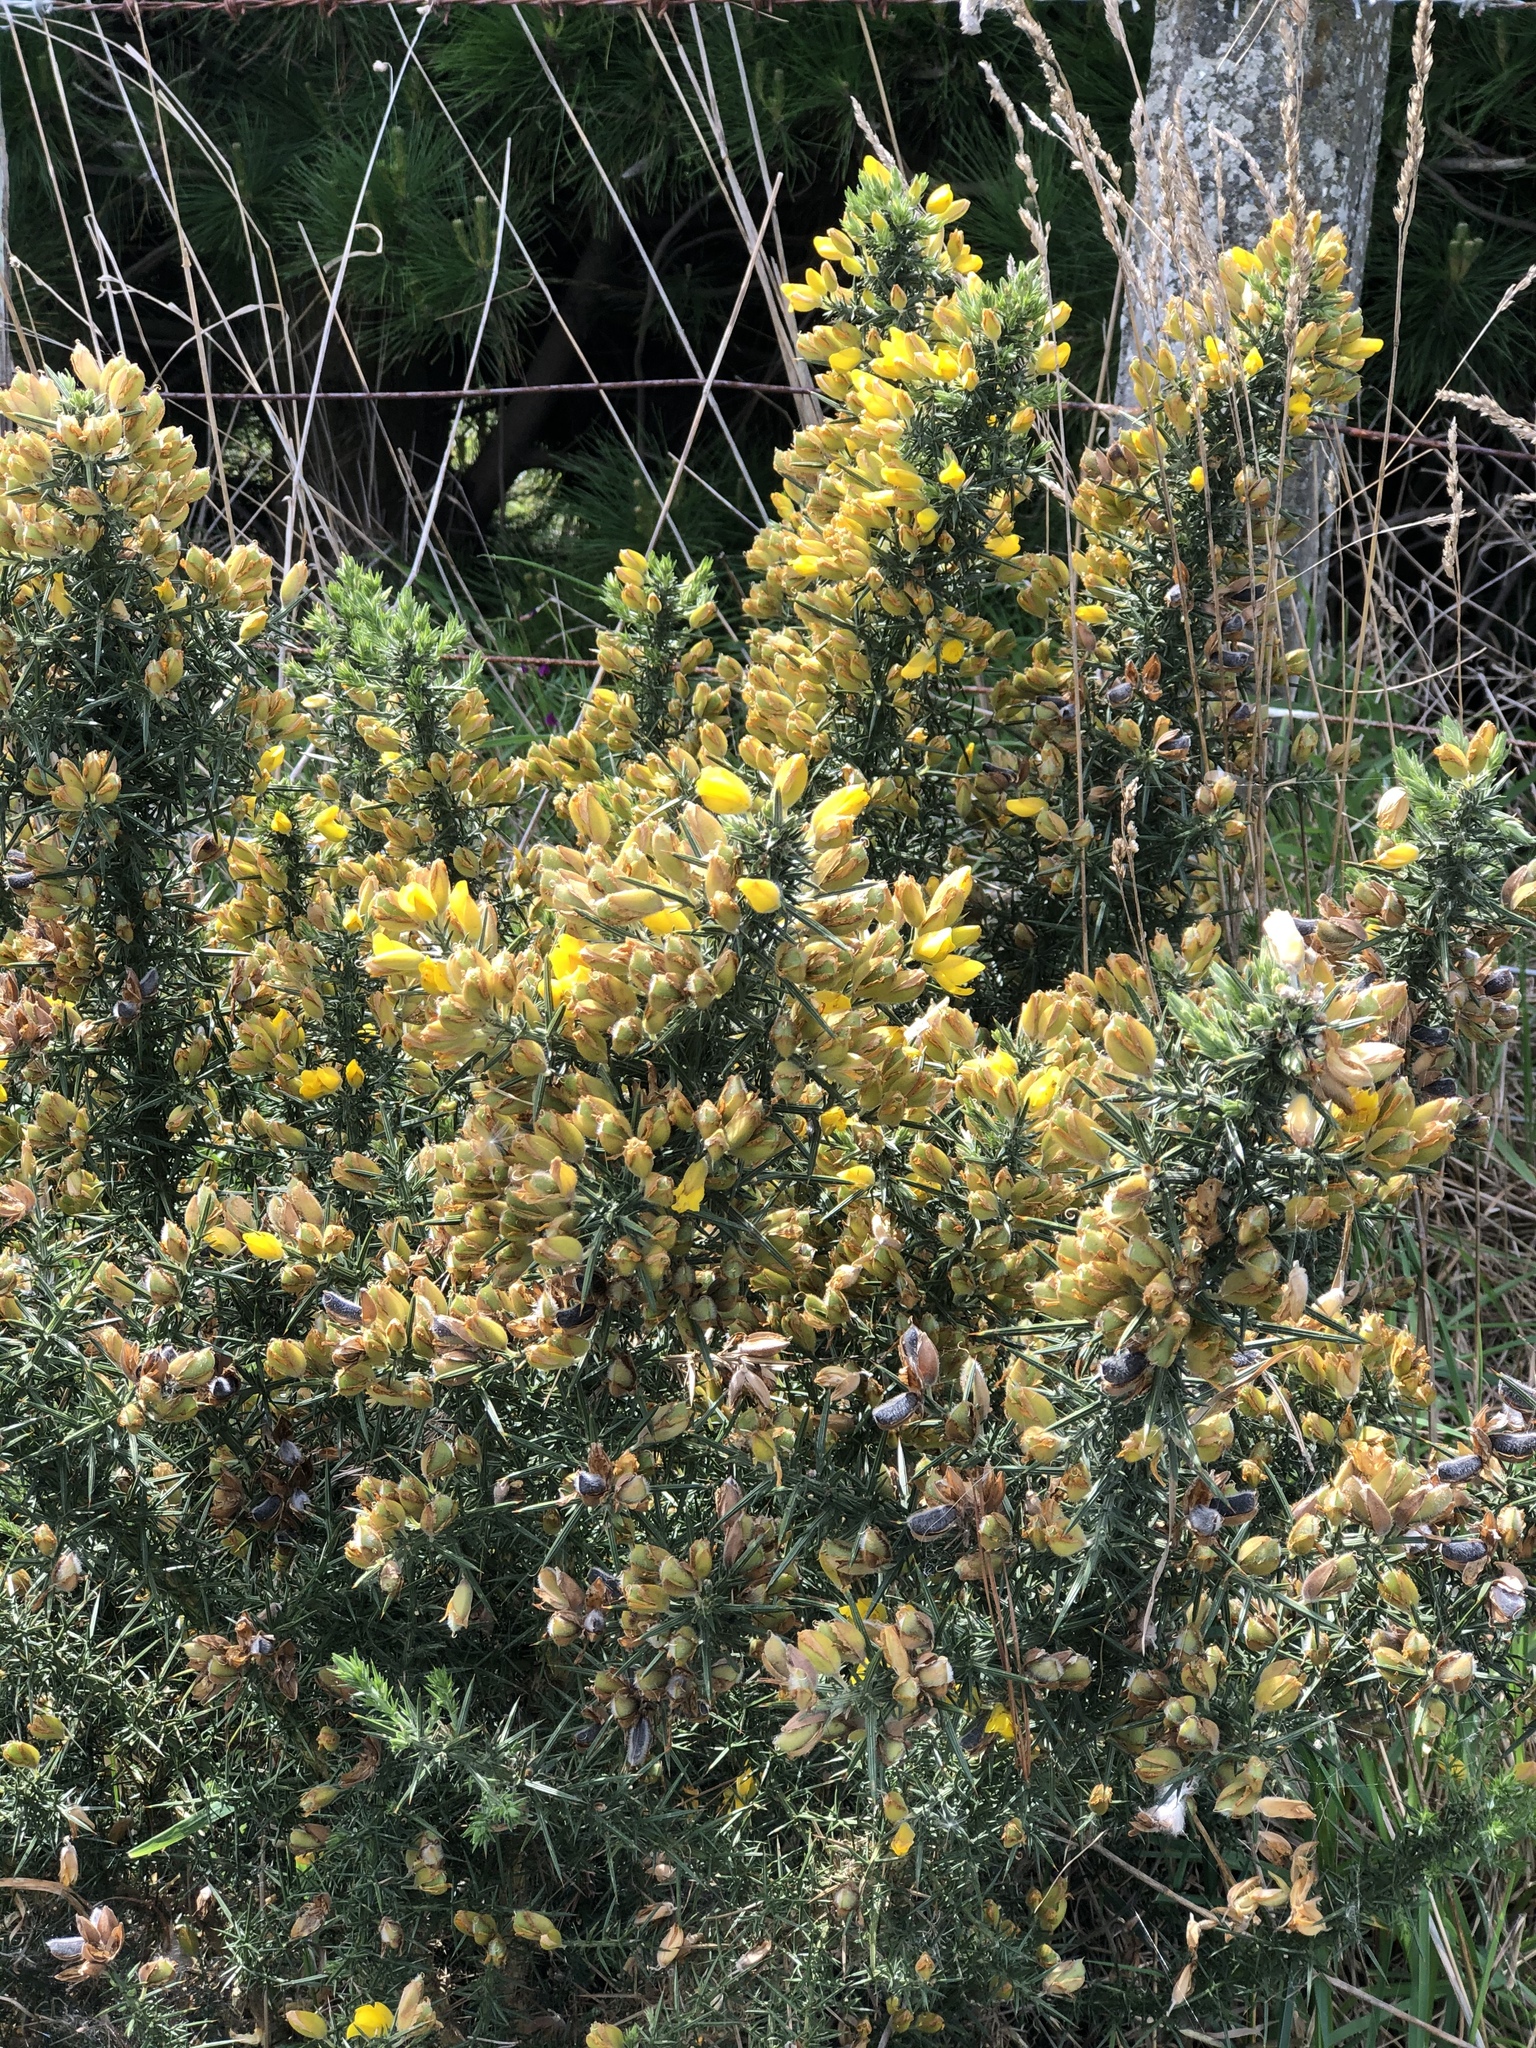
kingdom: Plantae
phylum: Tracheophyta
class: Magnoliopsida
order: Fabales
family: Fabaceae
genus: Ulex
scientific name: Ulex europaeus
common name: Common gorse
